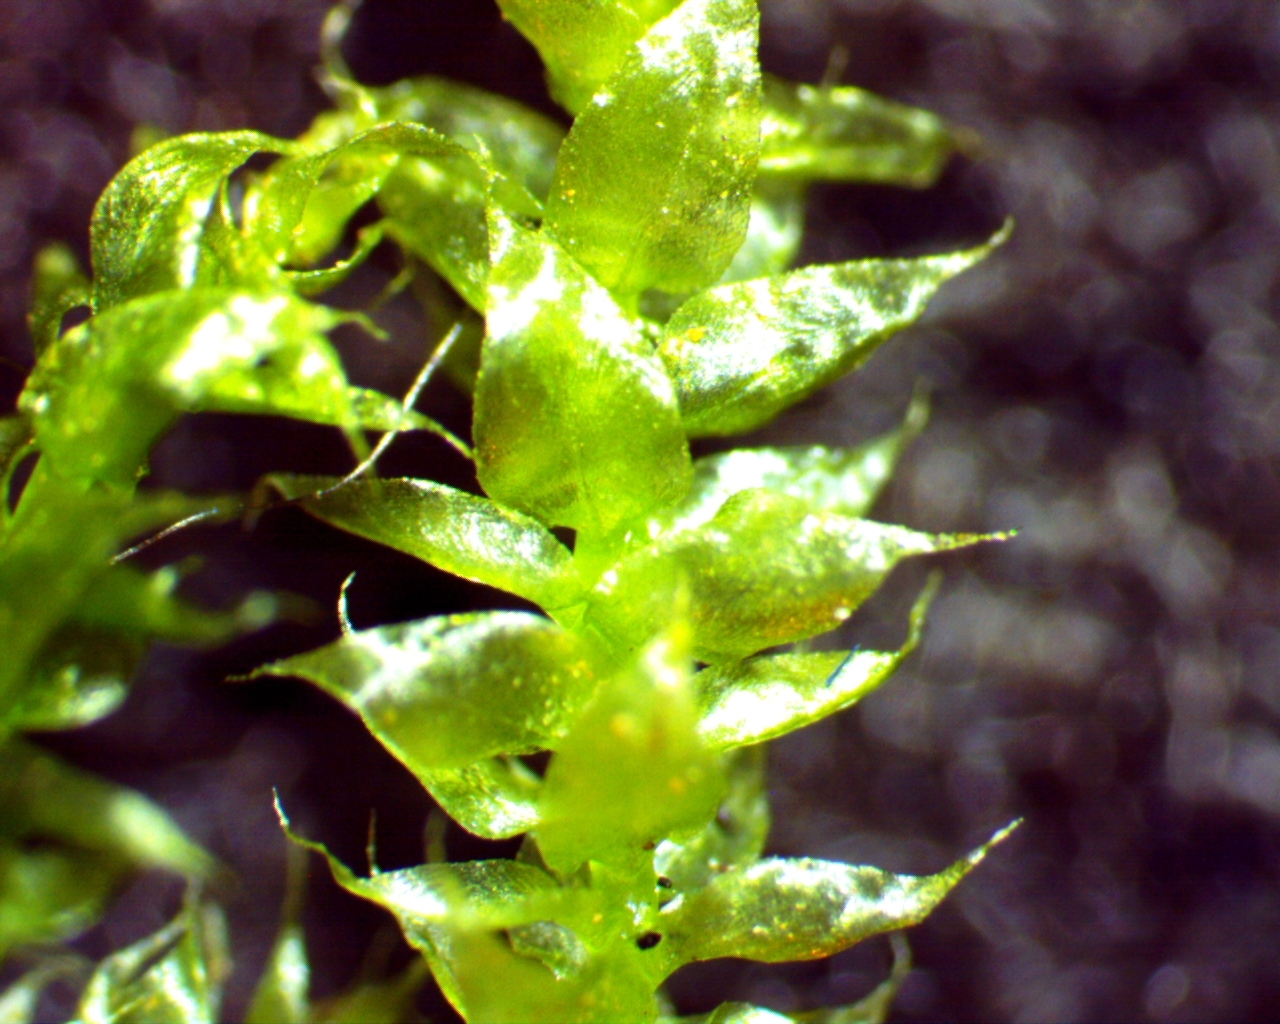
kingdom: Plantae
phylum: Bryophyta
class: Bryopsida
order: Hypnales
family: Brachytheciaceae
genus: Rhynchostegium
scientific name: Rhynchostegium serrulatum
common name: Serrulate-leaved long-beaked moss
